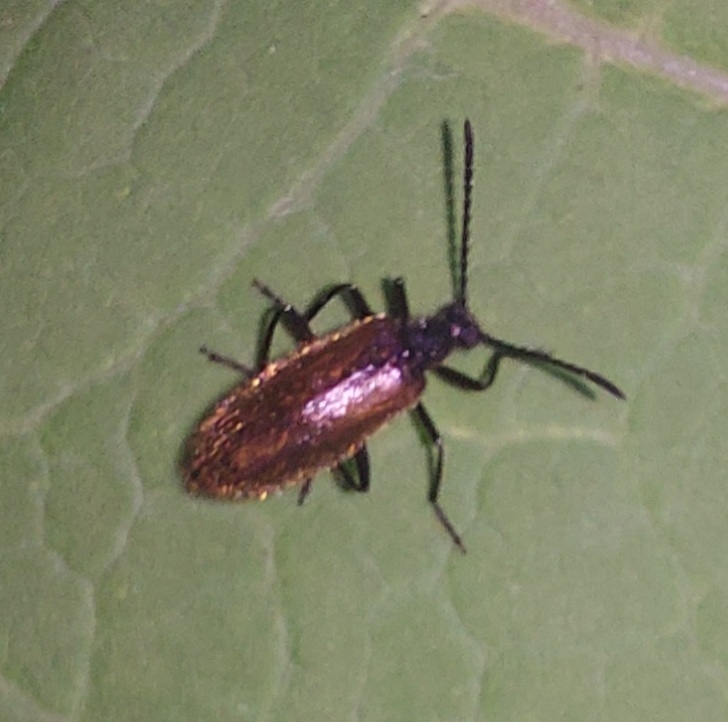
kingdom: Animalia
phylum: Arthropoda
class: Insecta
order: Coleoptera
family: Tenebrionidae
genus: Lagria
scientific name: Lagria hirta
